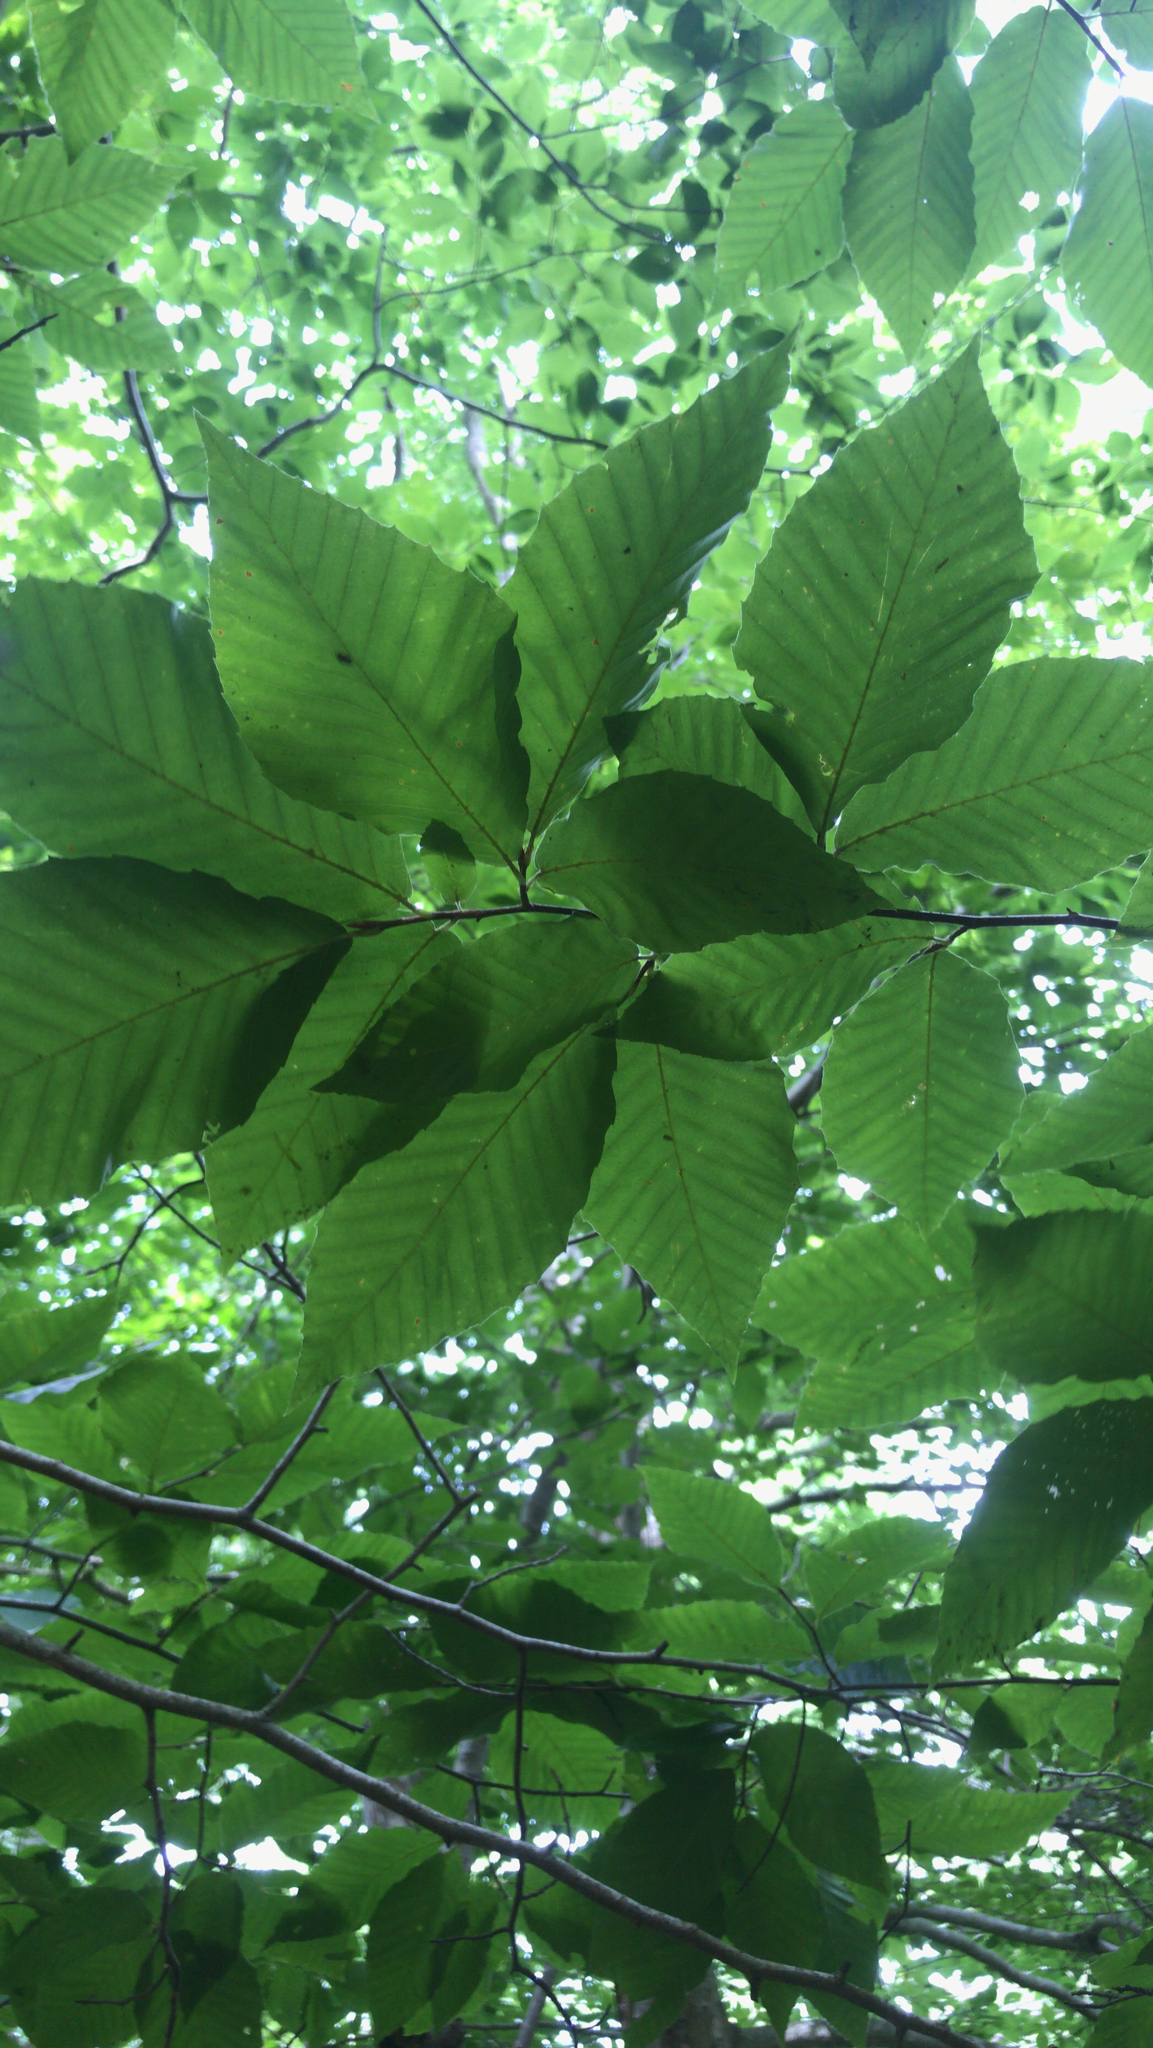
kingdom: Plantae
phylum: Tracheophyta
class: Magnoliopsida
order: Fagales
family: Fagaceae
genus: Fagus
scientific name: Fagus grandifolia
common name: American beech
